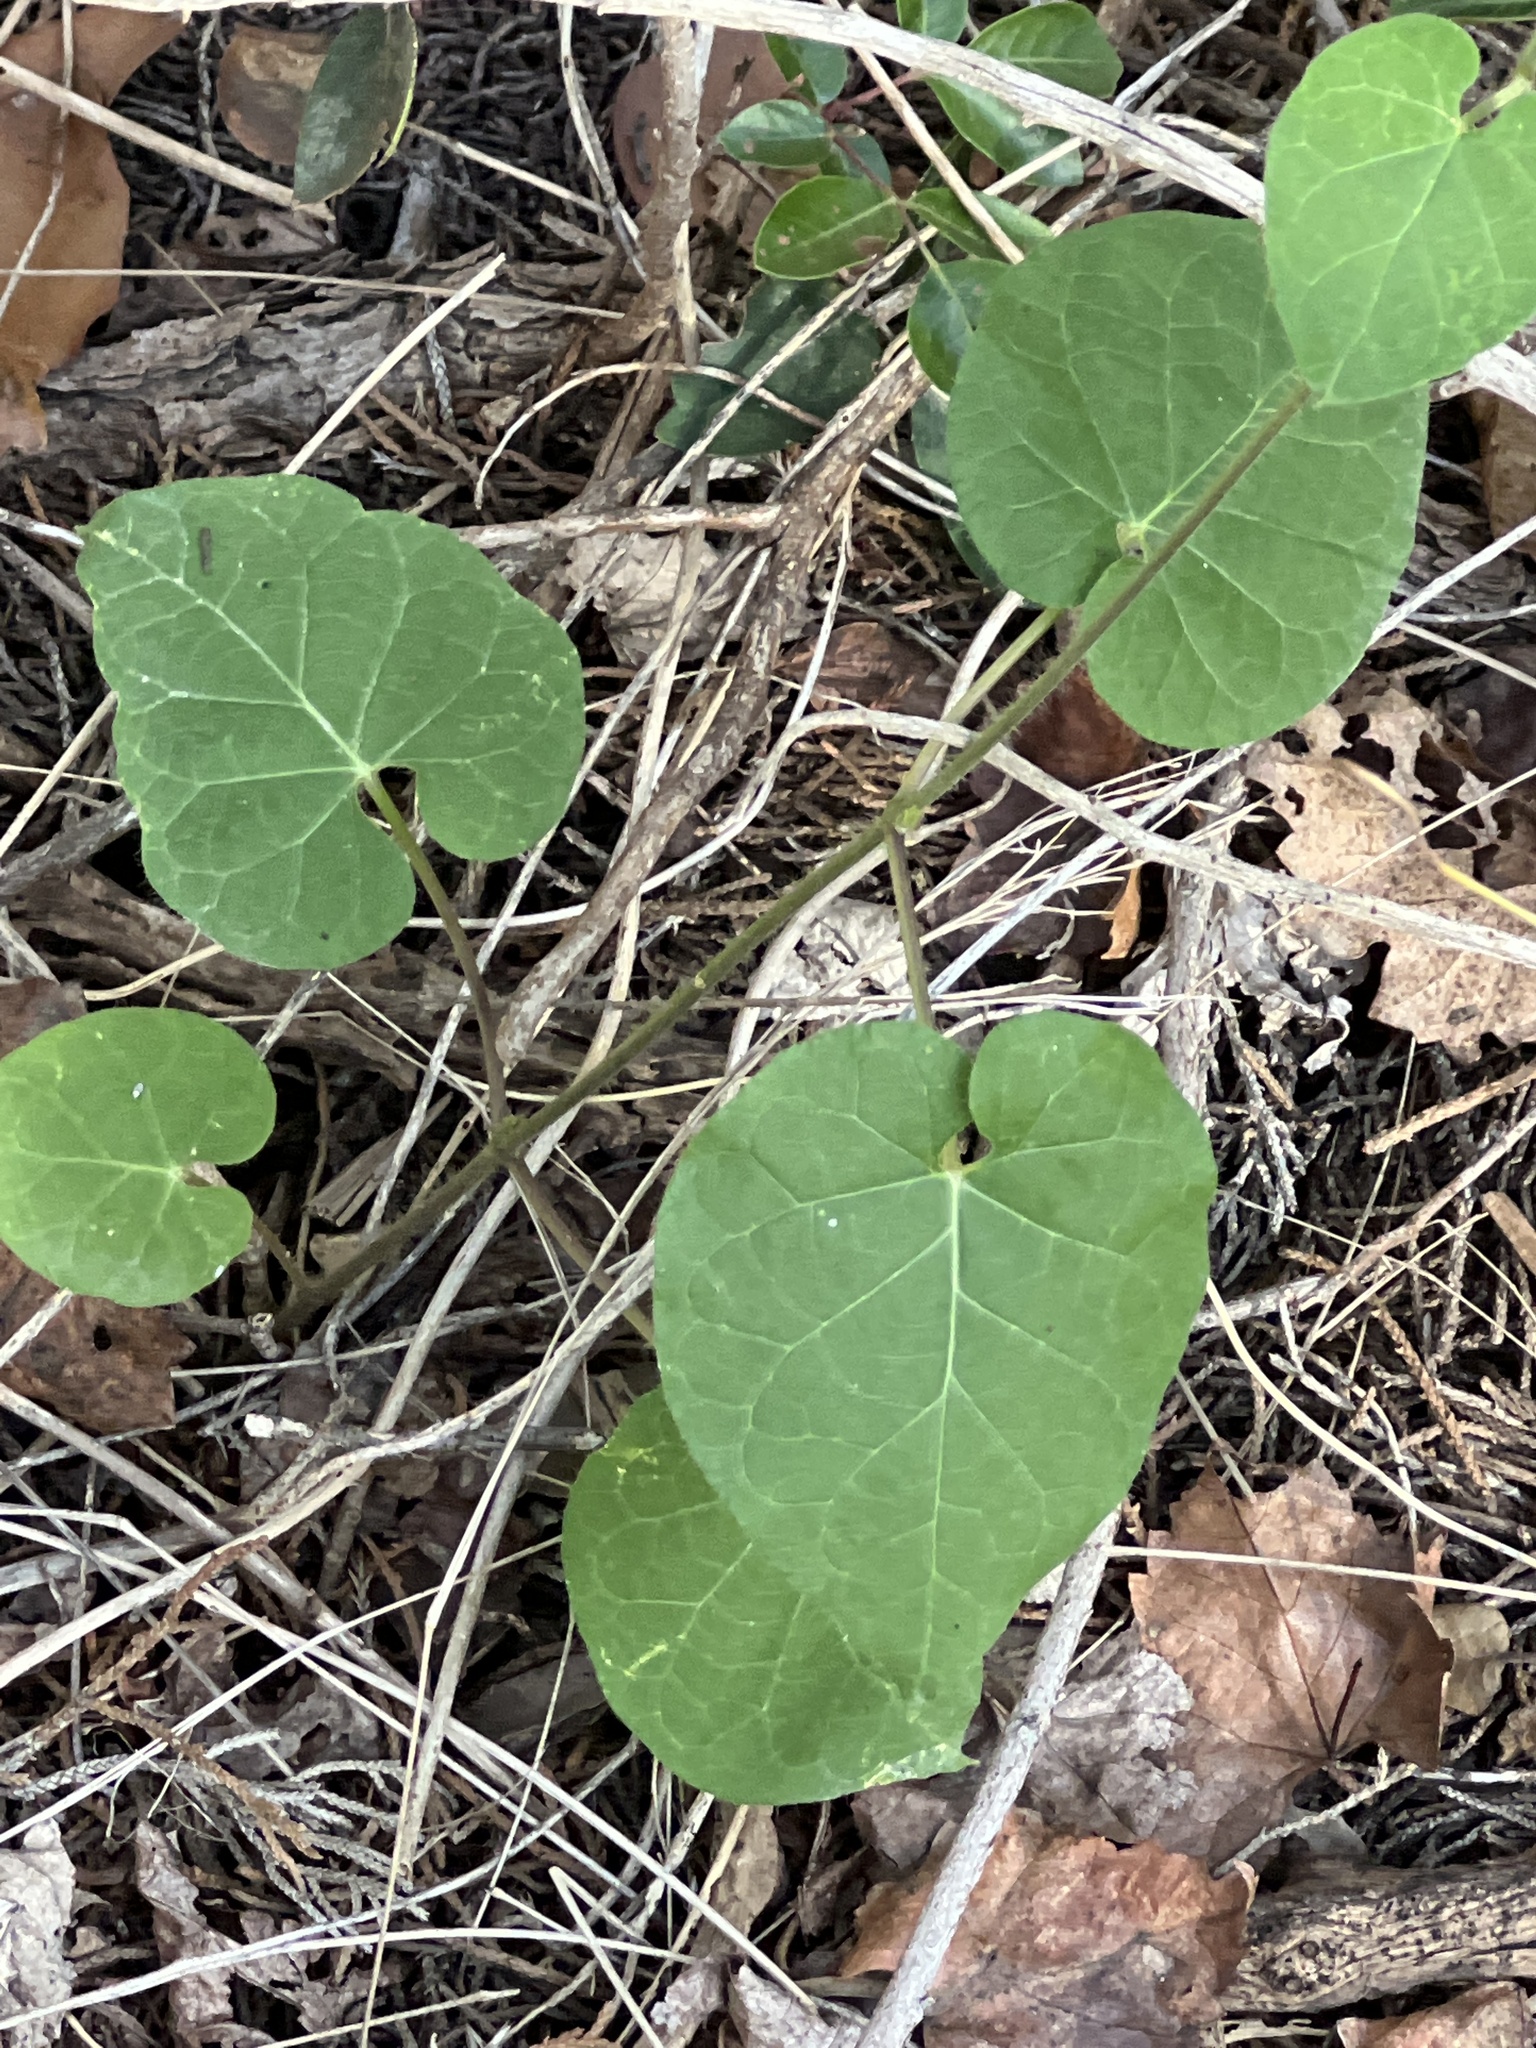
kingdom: Plantae
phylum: Tracheophyta
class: Magnoliopsida
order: Gentianales
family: Apocynaceae
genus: Dictyanthus
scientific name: Dictyanthus reticulatus
